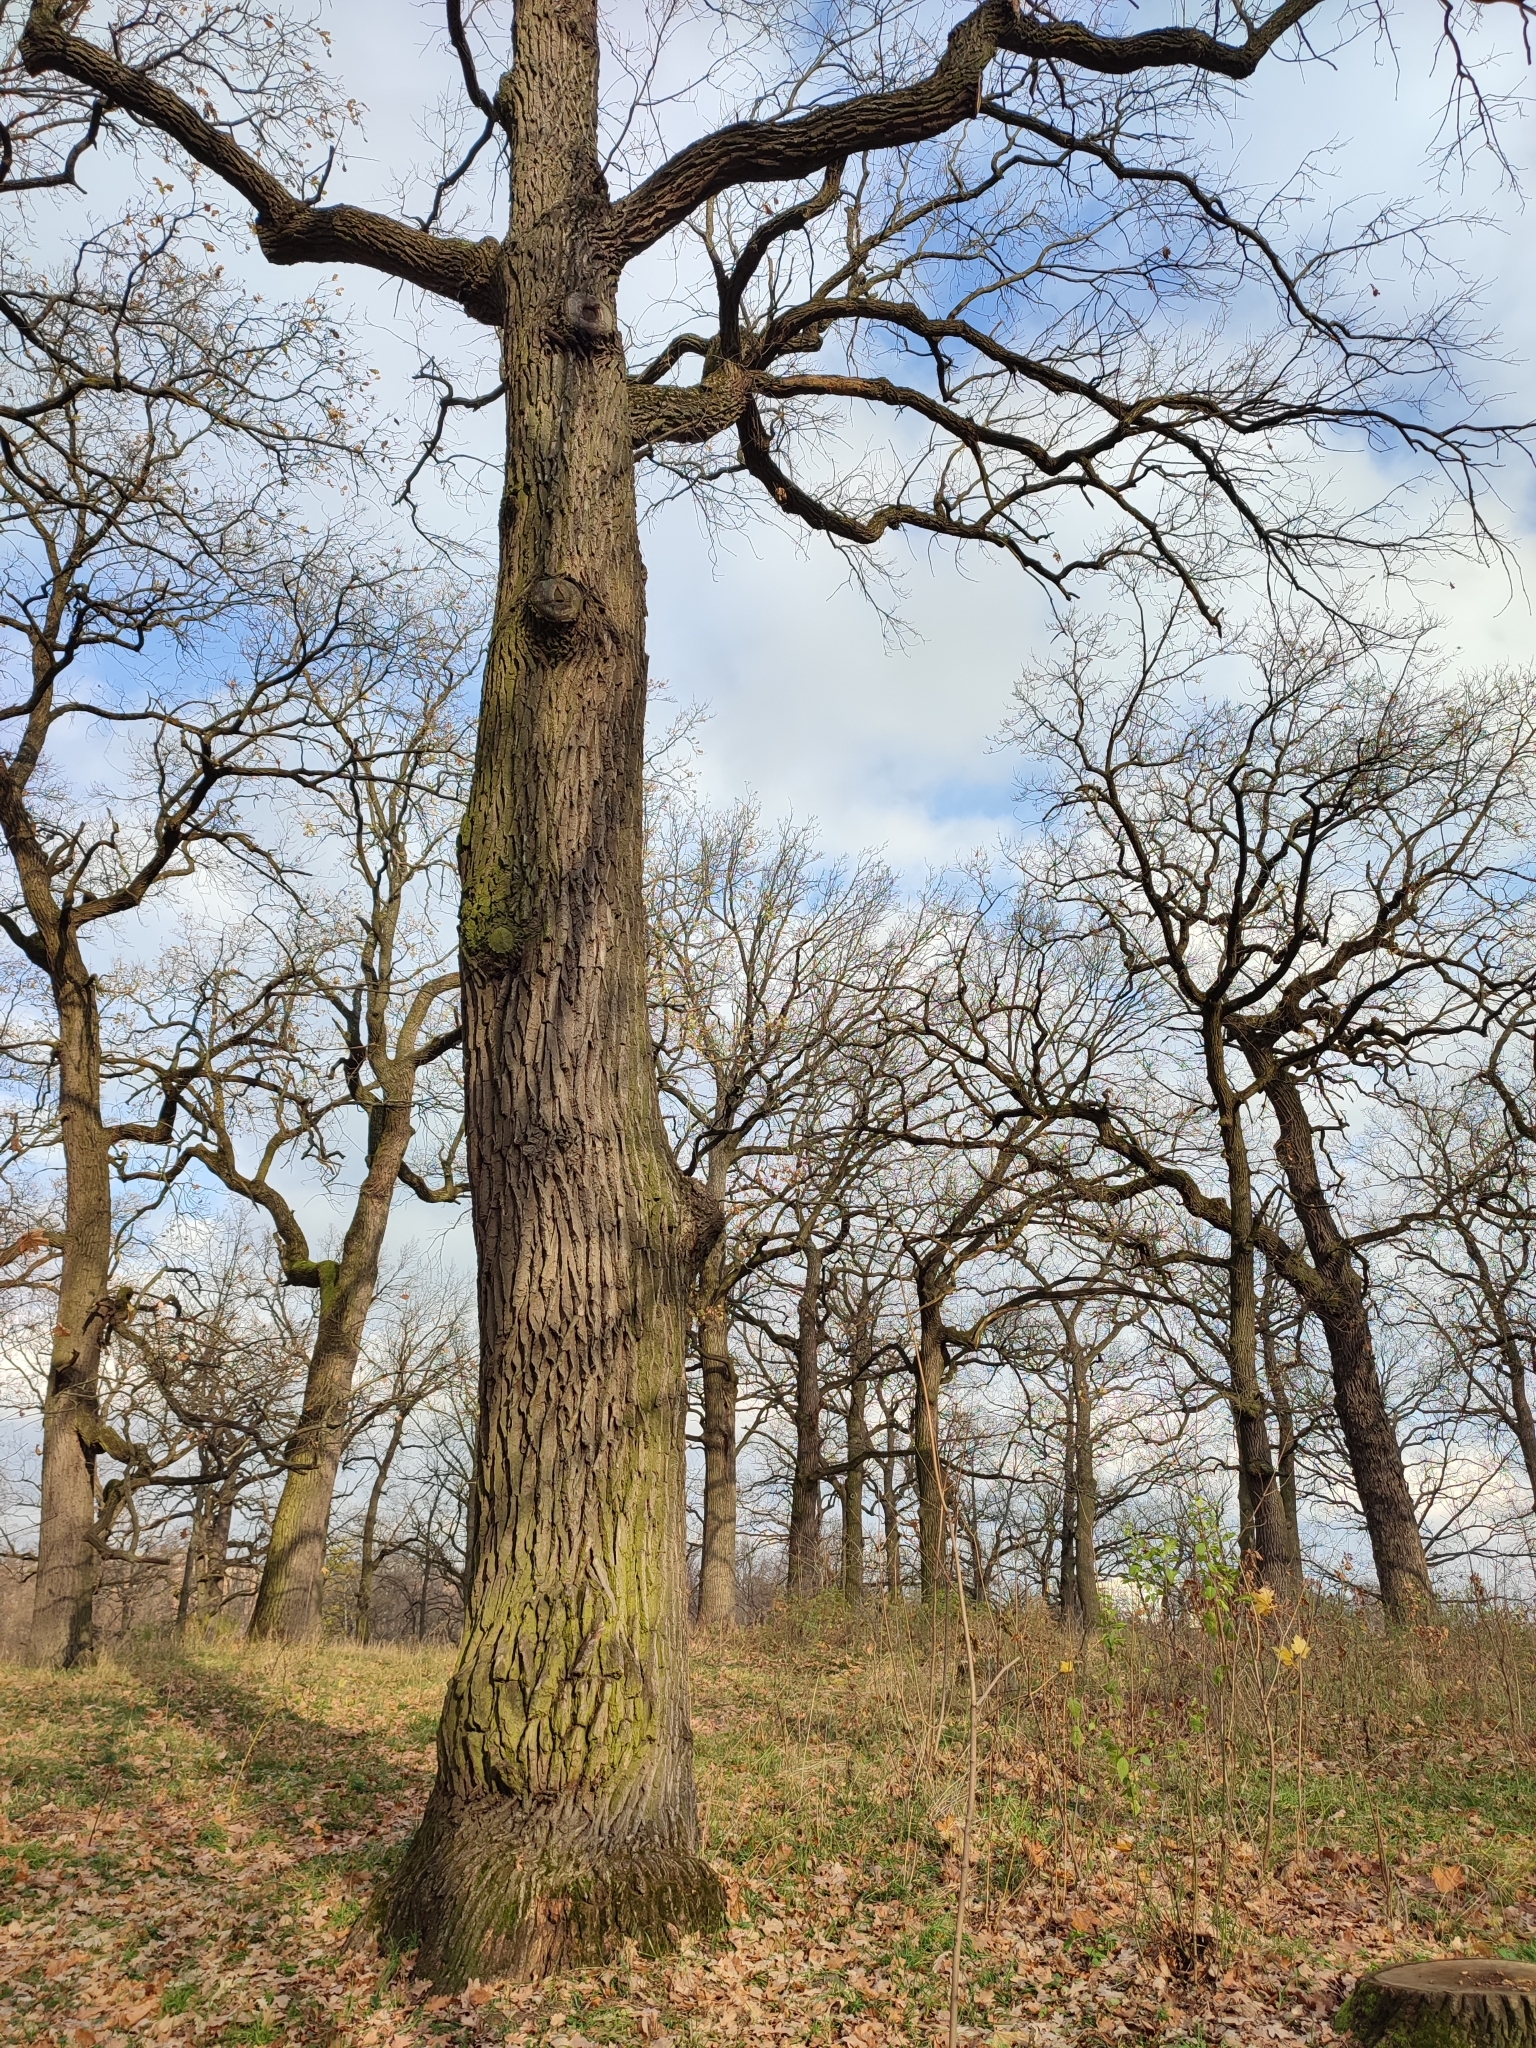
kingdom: Plantae
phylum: Tracheophyta
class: Magnoliopsida
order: Fagales
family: Fagaceae
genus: Quercus
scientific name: Quercus robur
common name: Pedunculate oak
